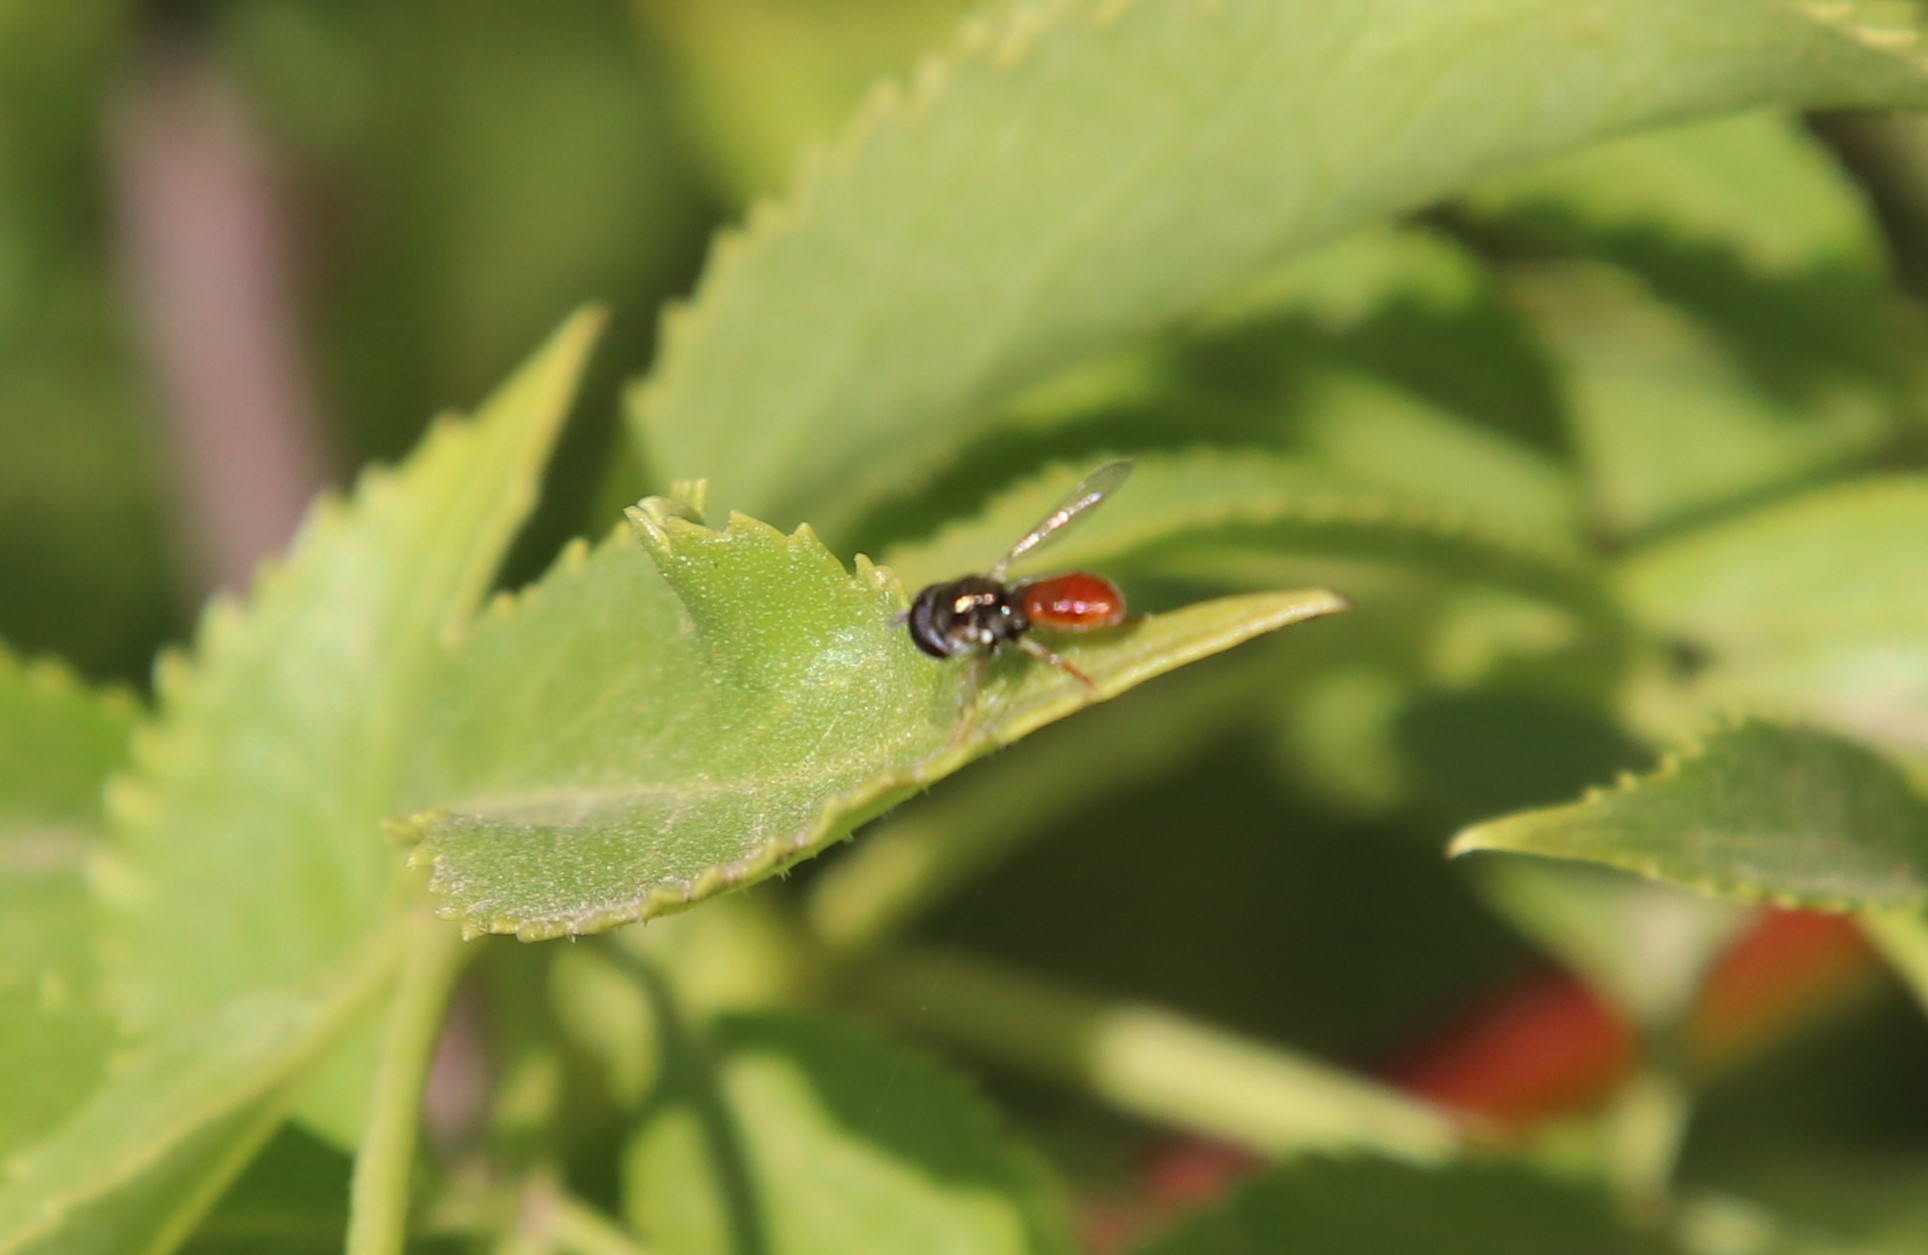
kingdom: Animalia
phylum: Arthropoda
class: Insecta
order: Diptera
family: Syrphidae
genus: Paragus
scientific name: Paragus haemorrhous
